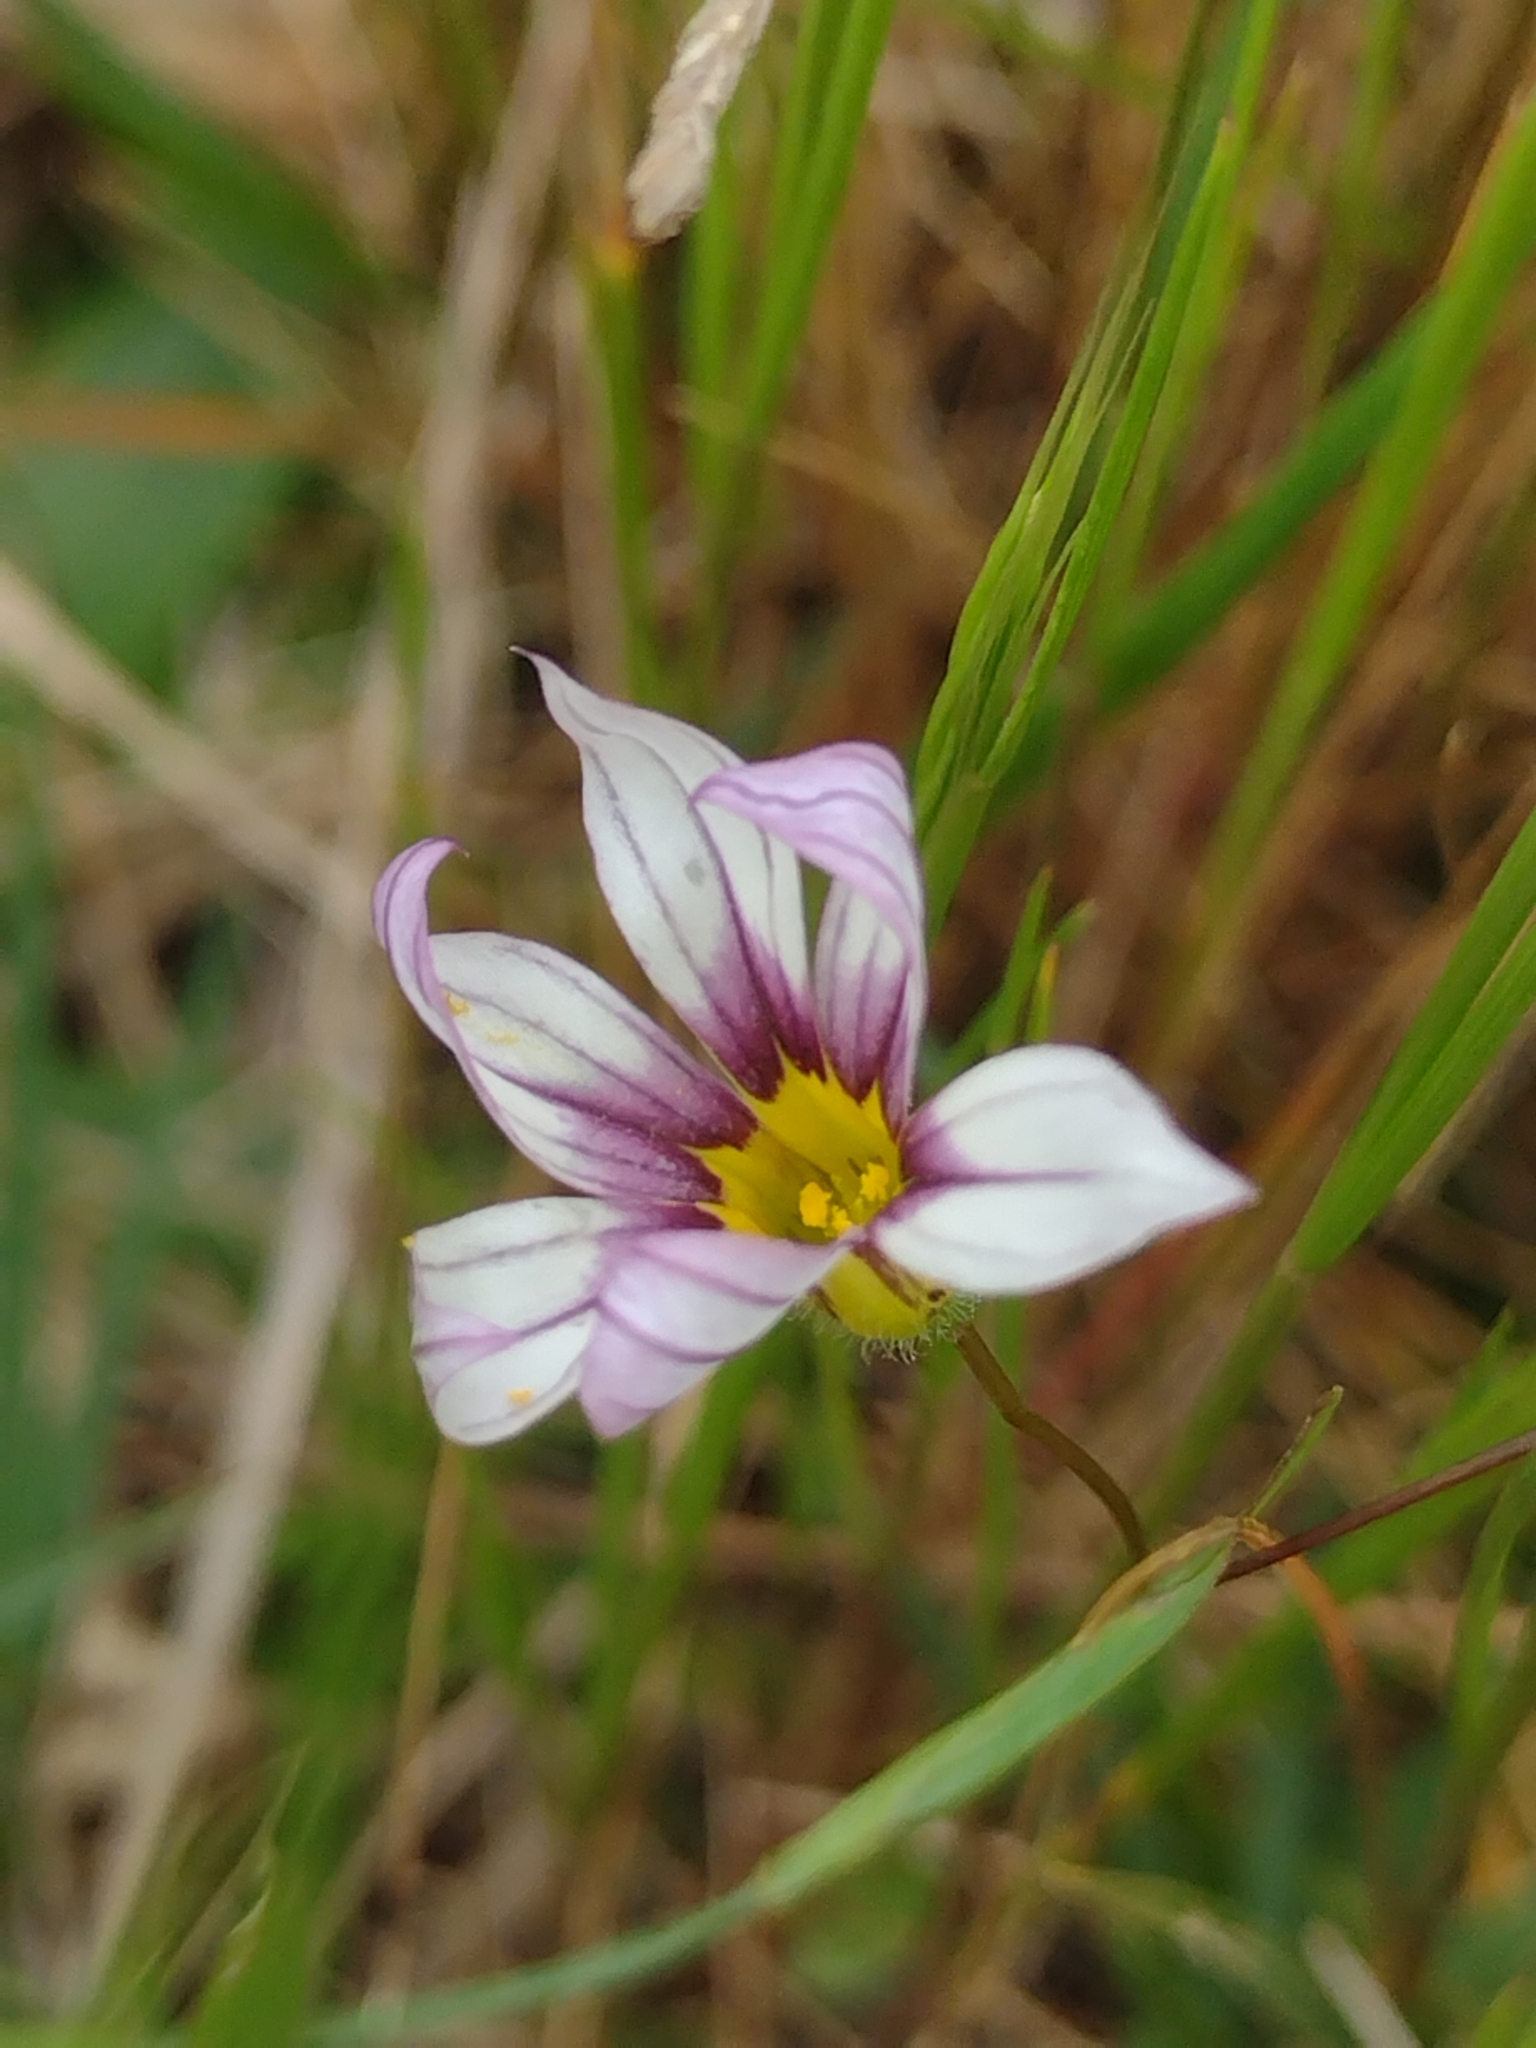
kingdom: Plantae
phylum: Tracheophyta
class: Liliopsida
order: Asparagales
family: Iridaceae
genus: Sisyrinchium
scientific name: Sisyrinchium micranthum
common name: Bermuda pigroot
